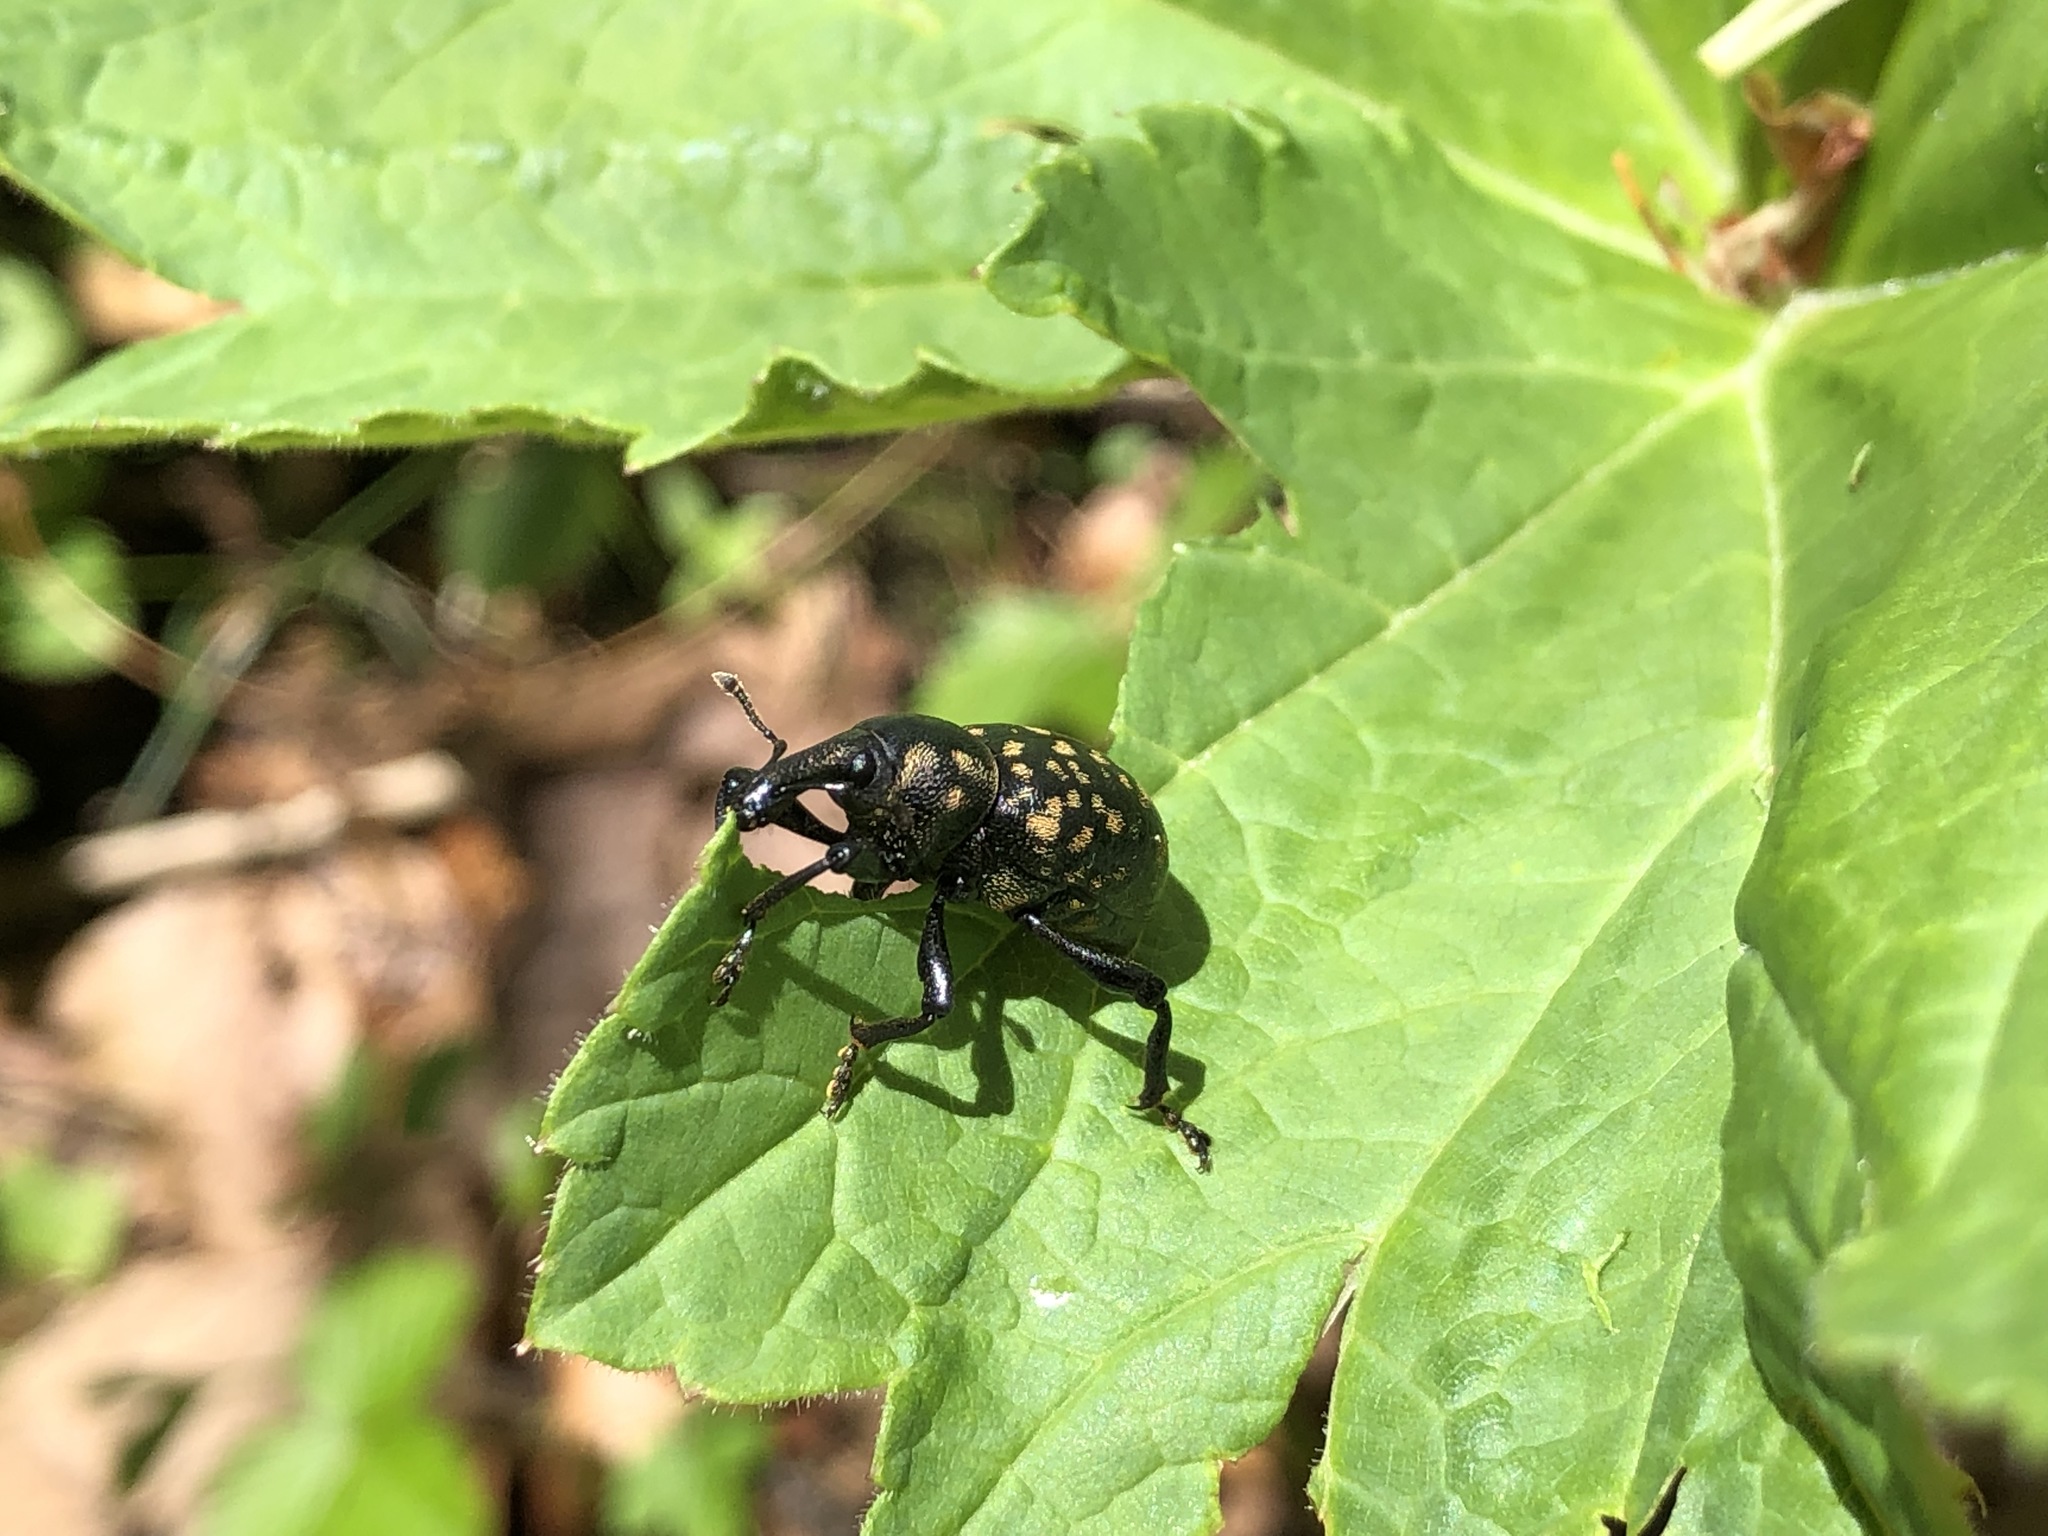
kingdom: Animalia
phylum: Arthropoda
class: Insecta
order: Coleoptera
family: Curculionidae
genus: Liparus
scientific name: Liparus germanus
